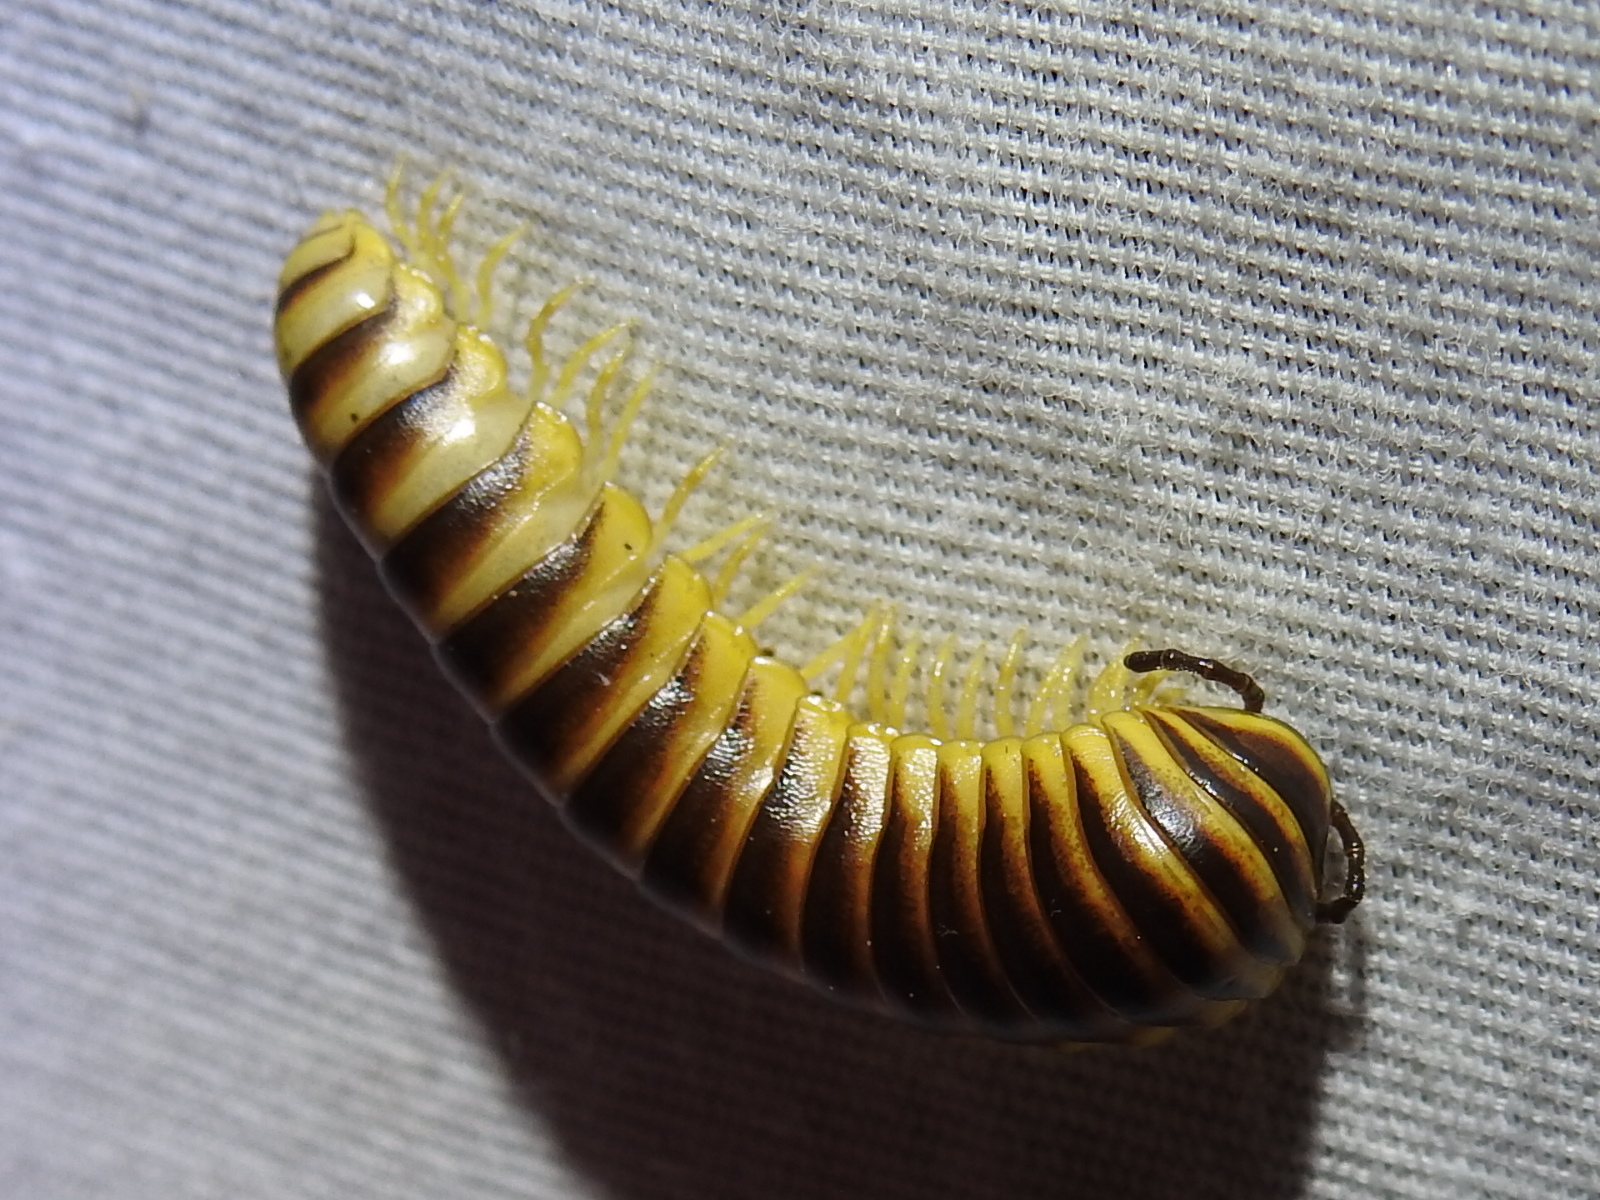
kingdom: Animalia
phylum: Arthropoda
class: Diplopoda
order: Polydesmida
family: Xystodesmidae
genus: Aporiaria
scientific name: Aporiaria texicolens
